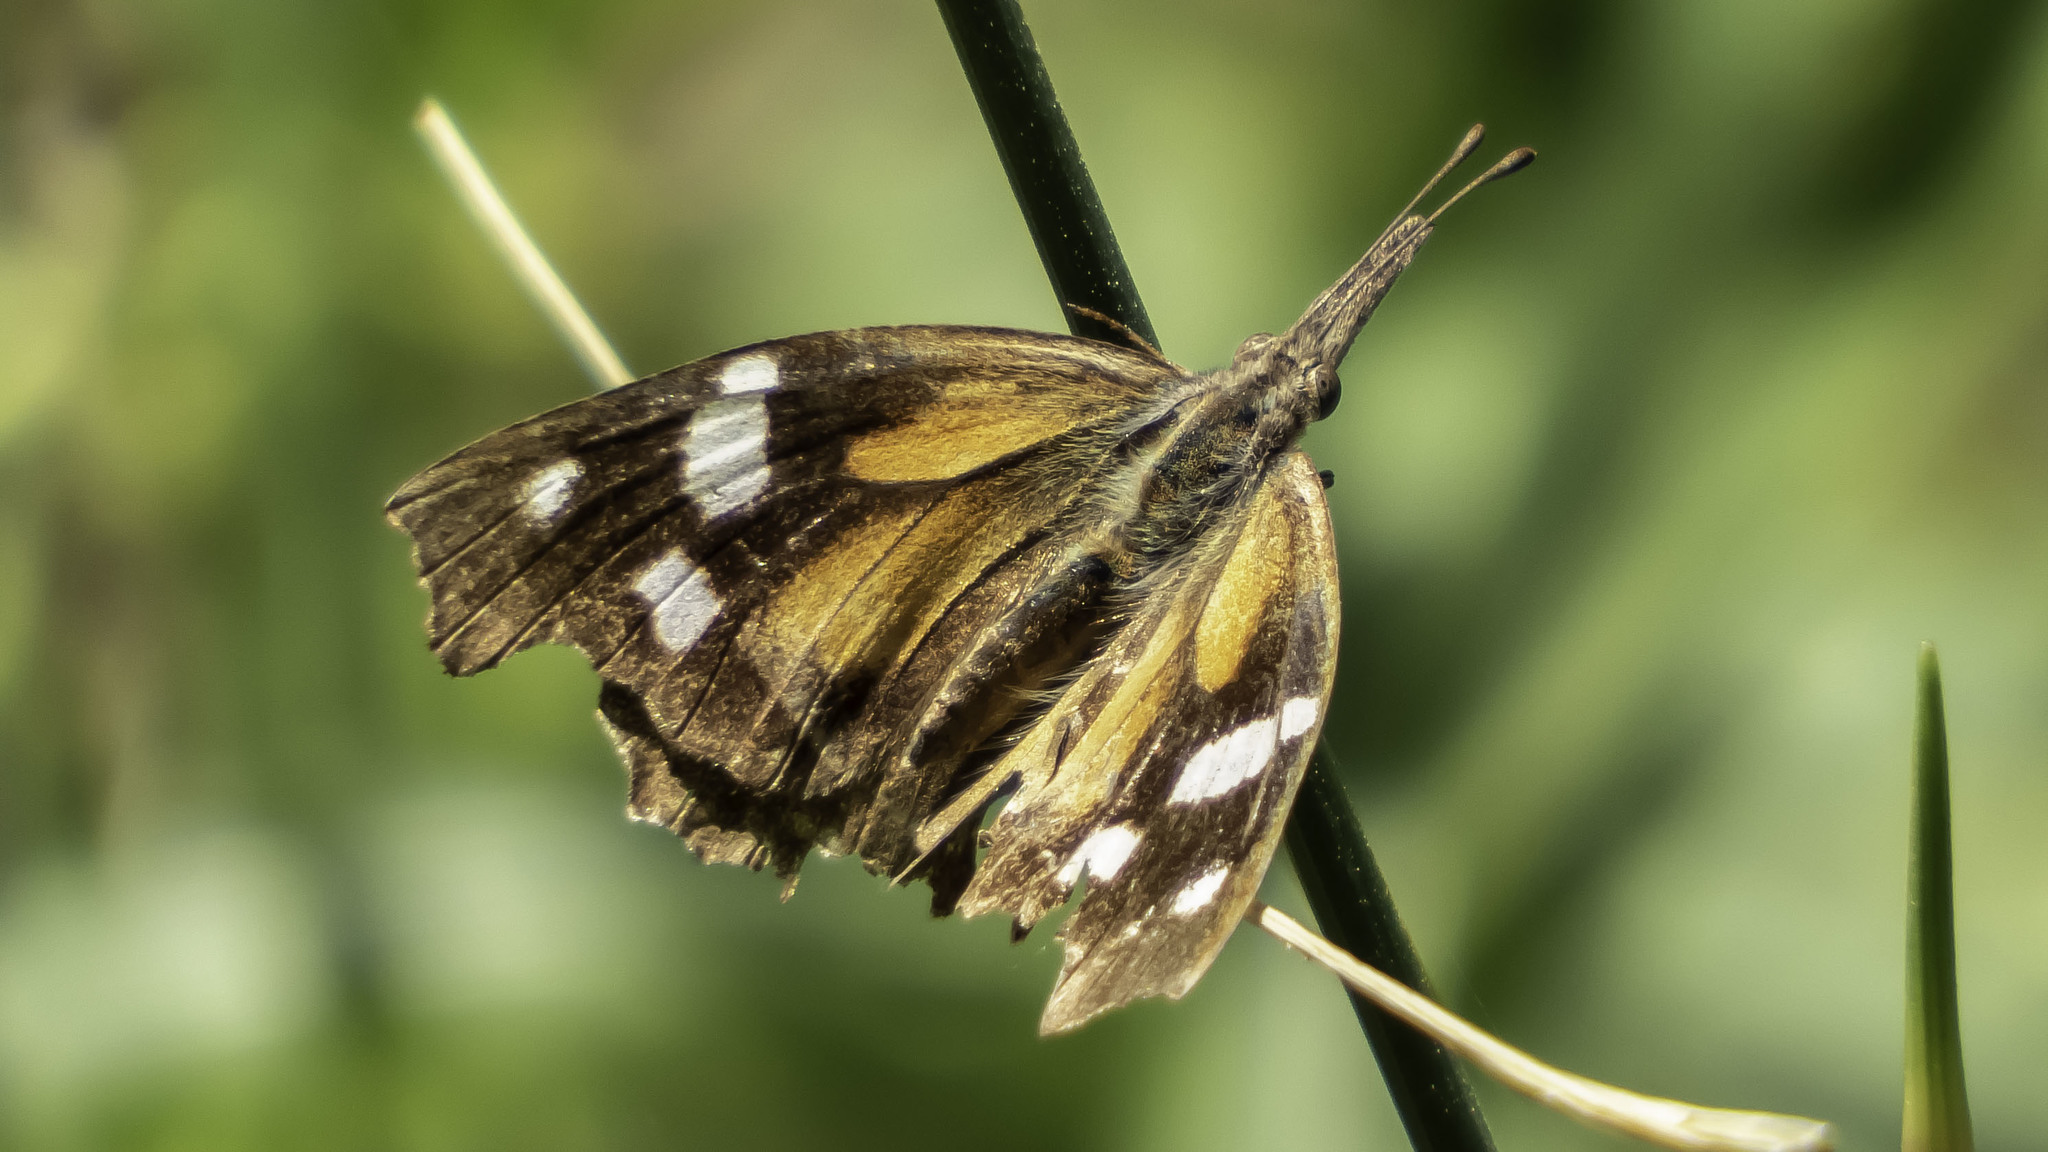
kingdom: Animalia
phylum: Arthropoda
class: Insecta
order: Lepidoptera
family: Nymphalidae
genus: Libytheana
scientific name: Libytheana carinenta
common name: American snout
